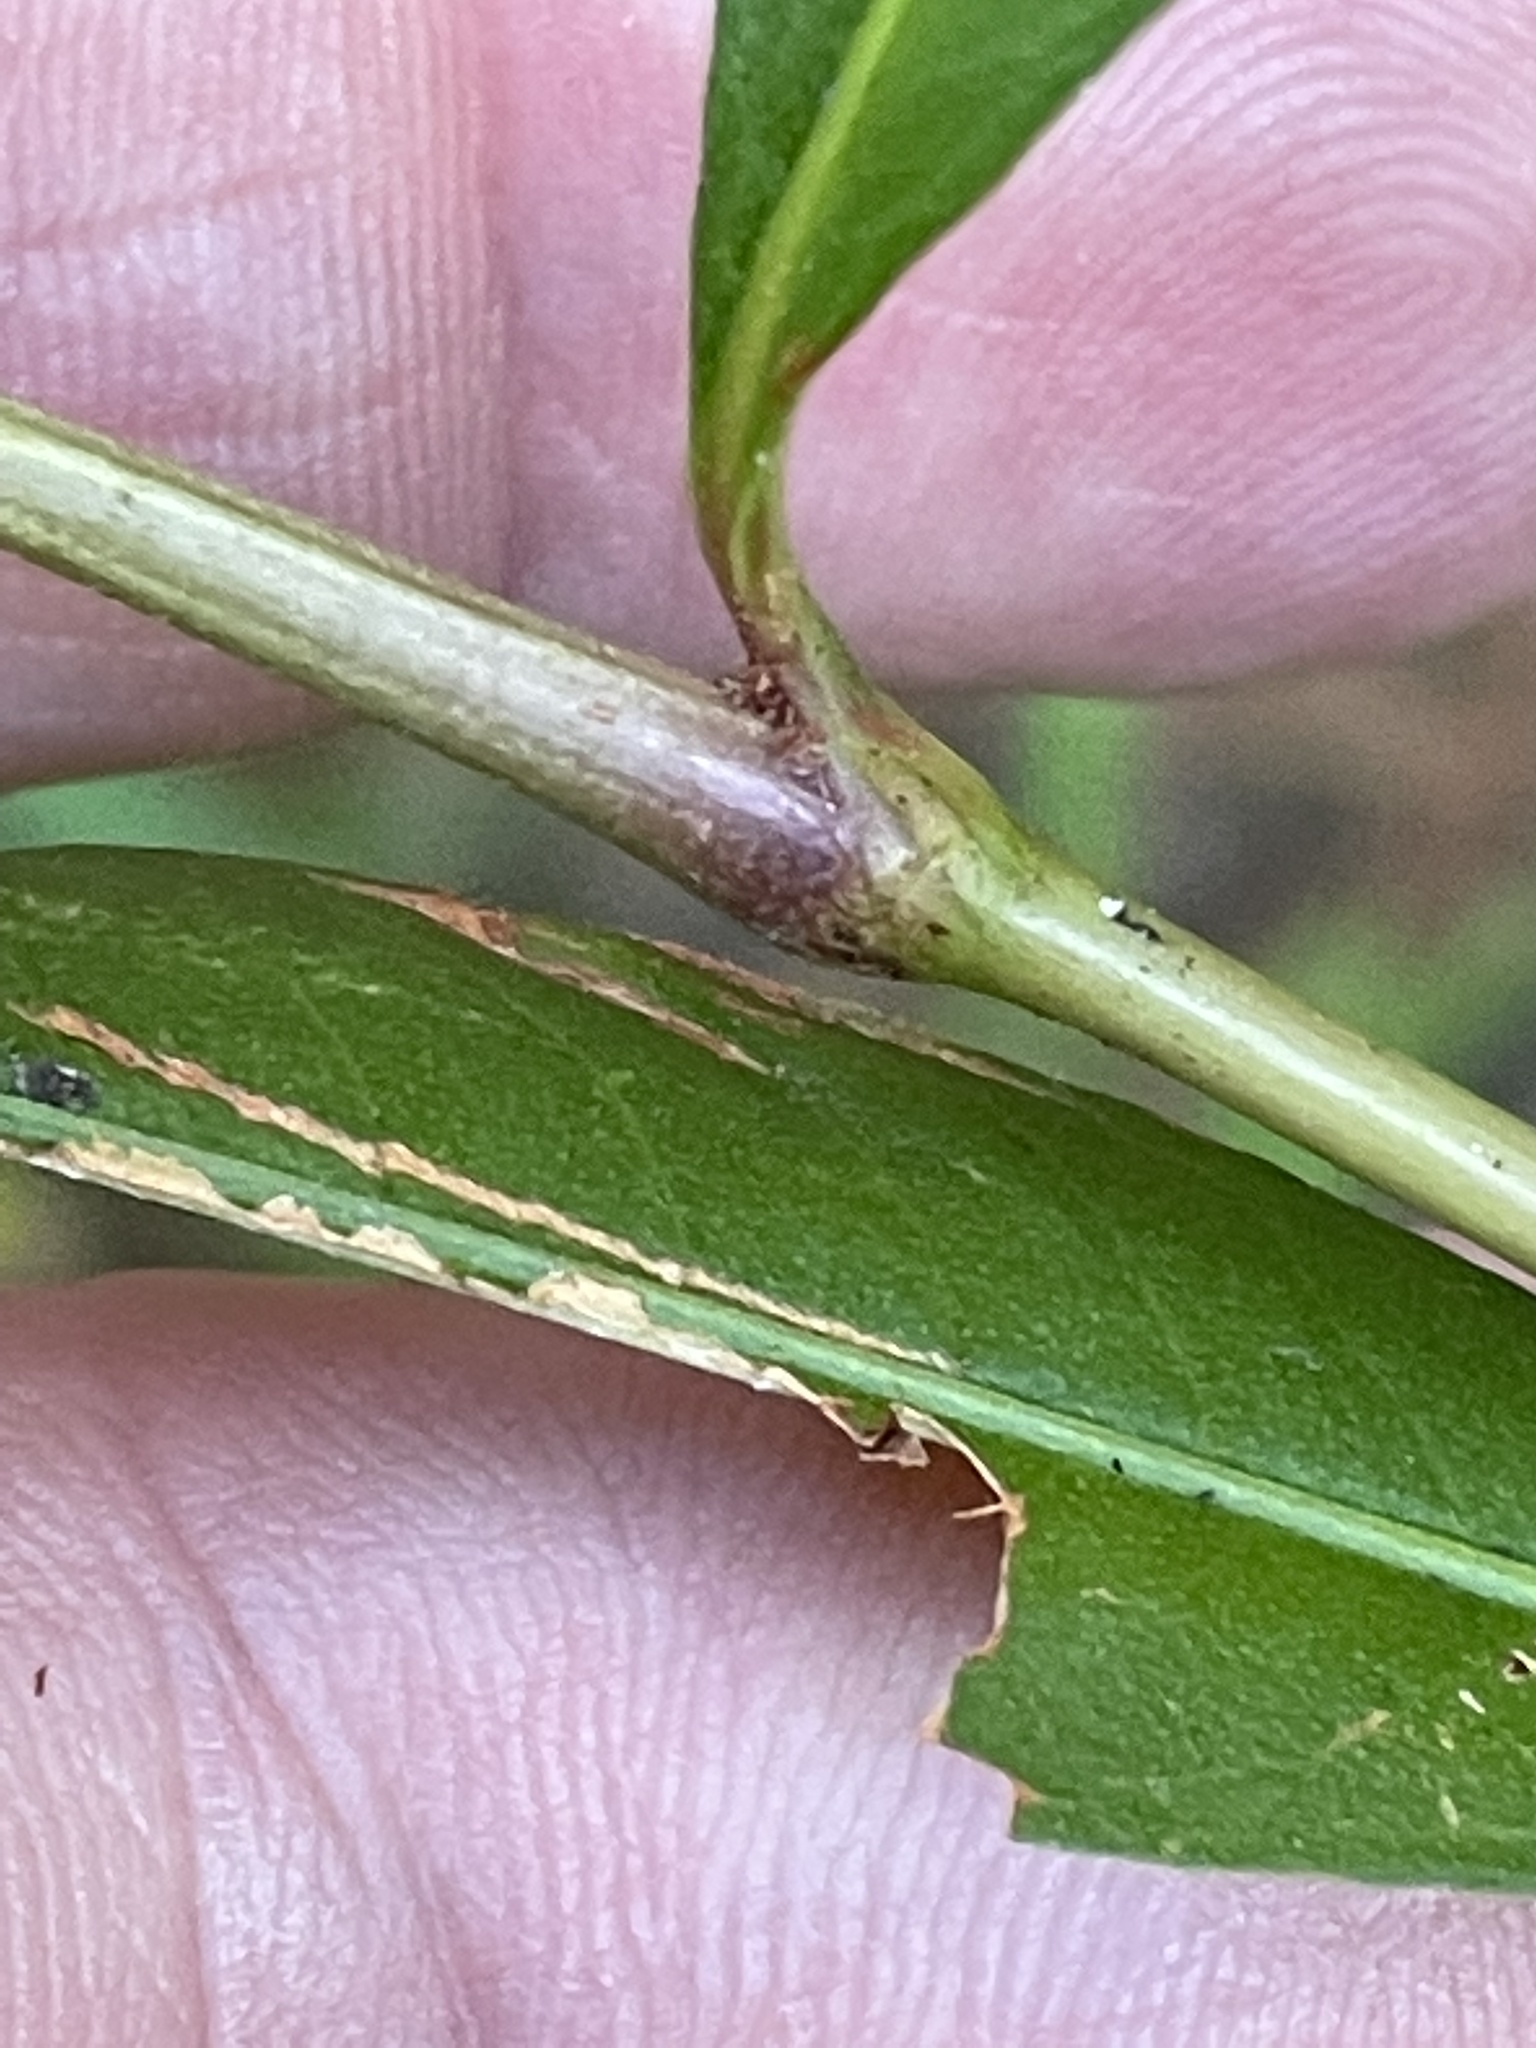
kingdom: Plantae
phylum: Tracheophyta
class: Magnoliopsida
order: Caryophyllales
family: Polygonaceae
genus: Persicaria
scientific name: Persicaria punctata
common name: Dotted smartweed
